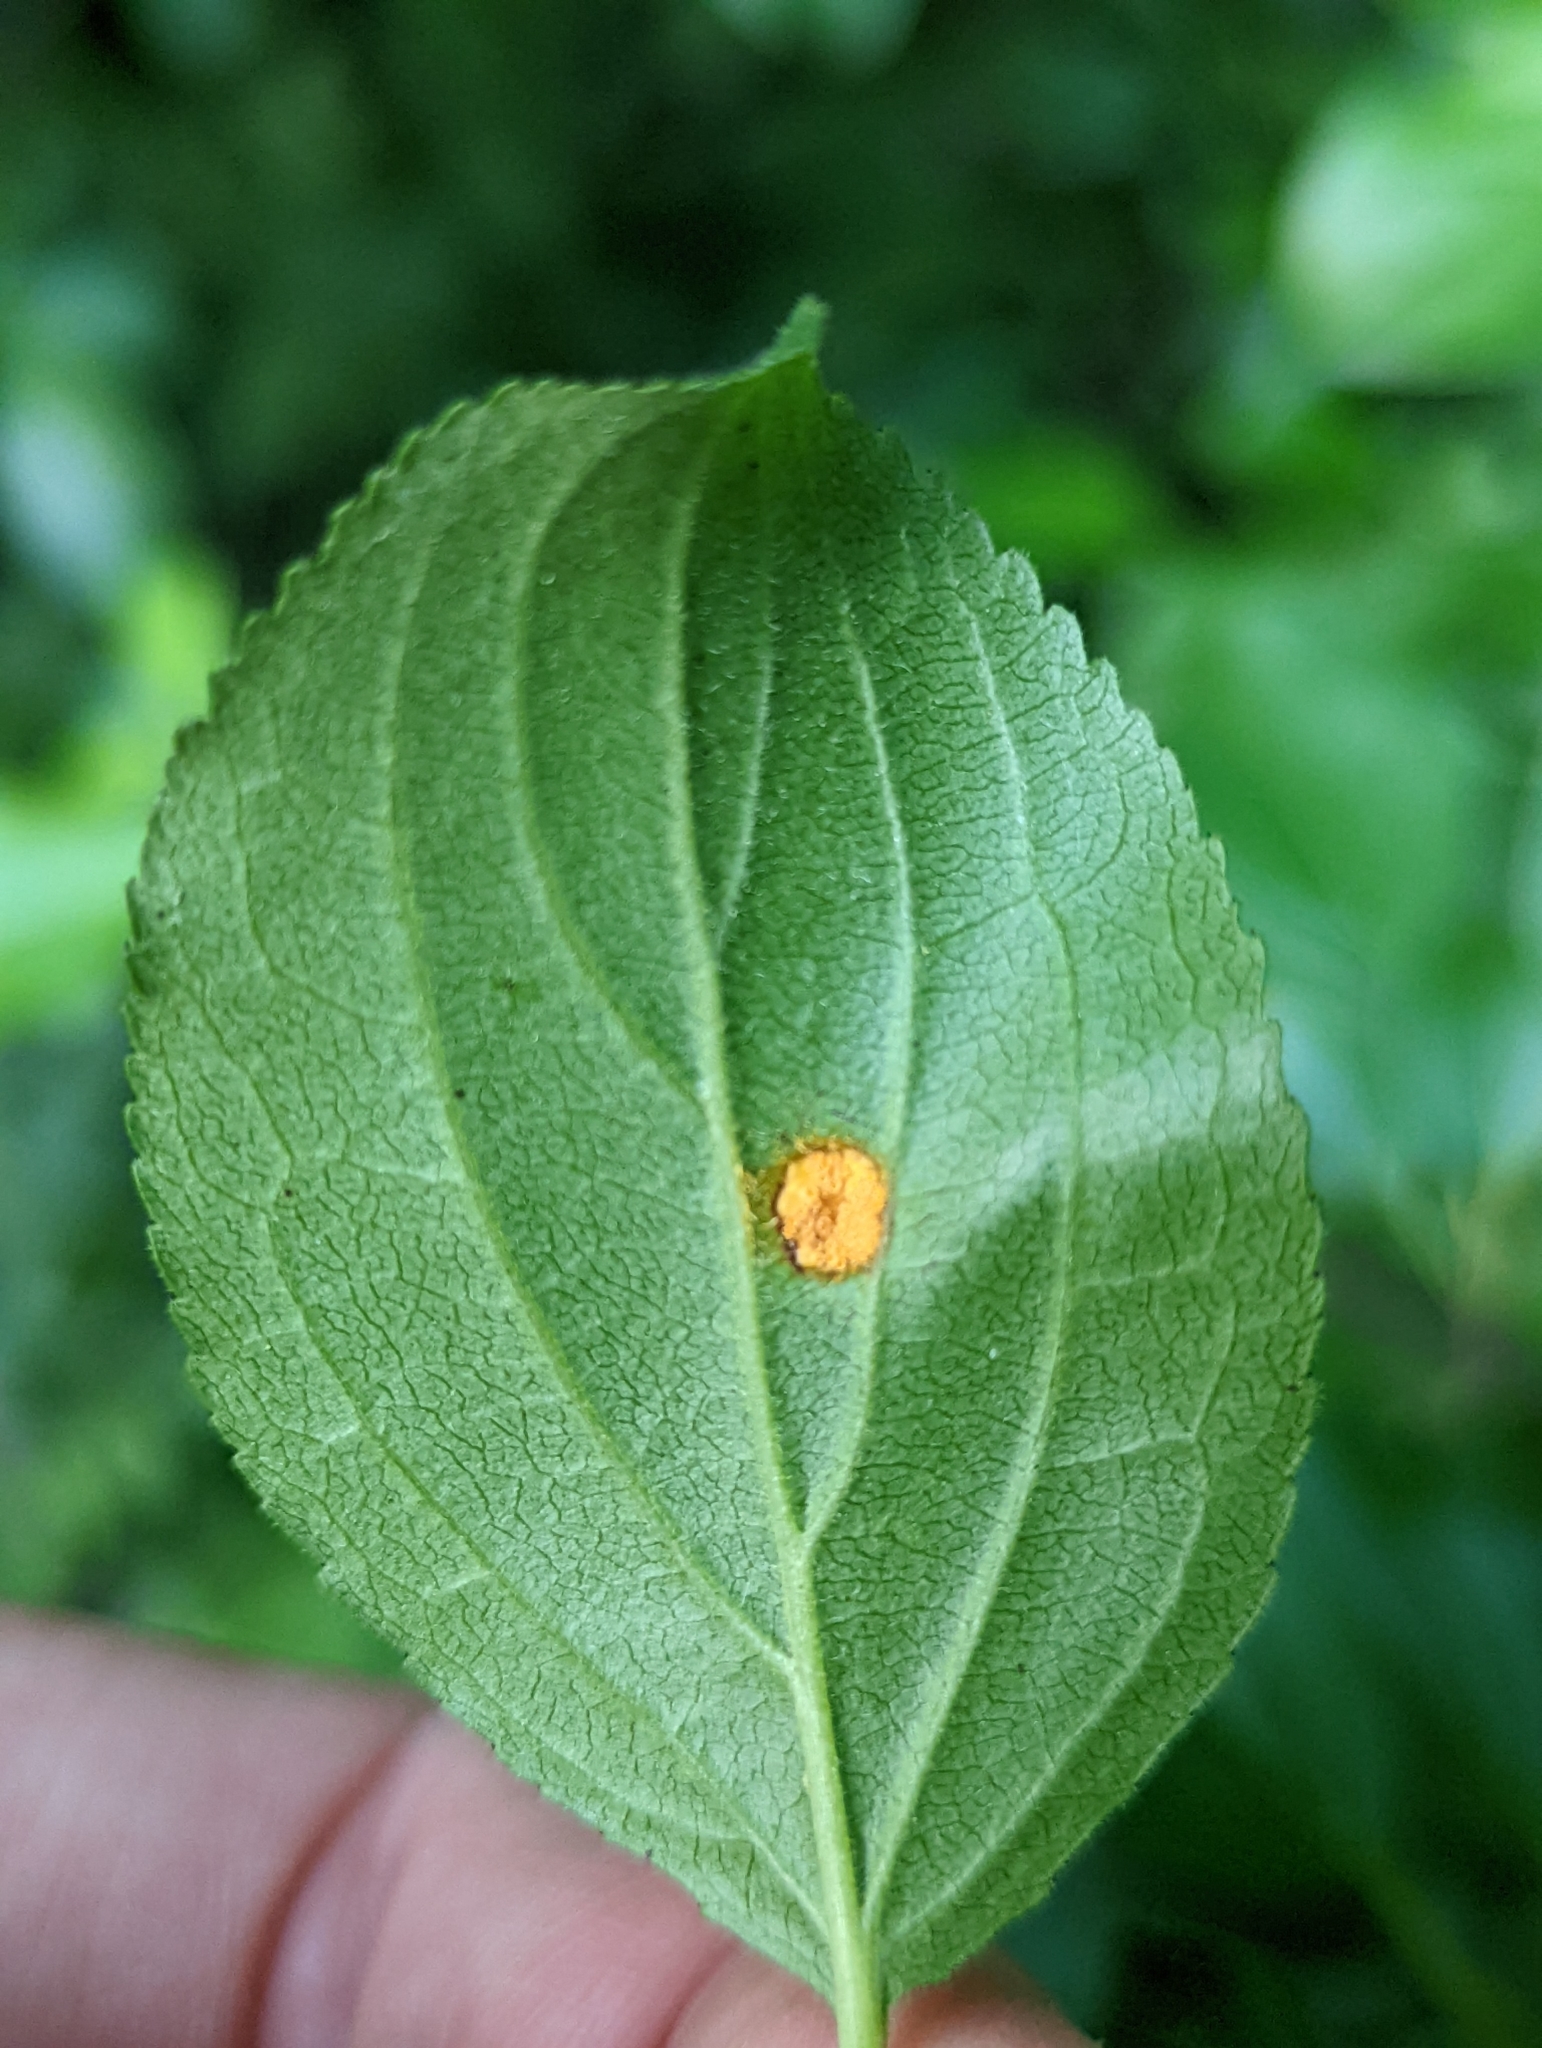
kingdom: Fungi
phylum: Basidiomycota
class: Pucciniomycetes
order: Pucciniales
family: Pucciniaceae
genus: Puccinia
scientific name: Puccinia coronata
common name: Crown rust
